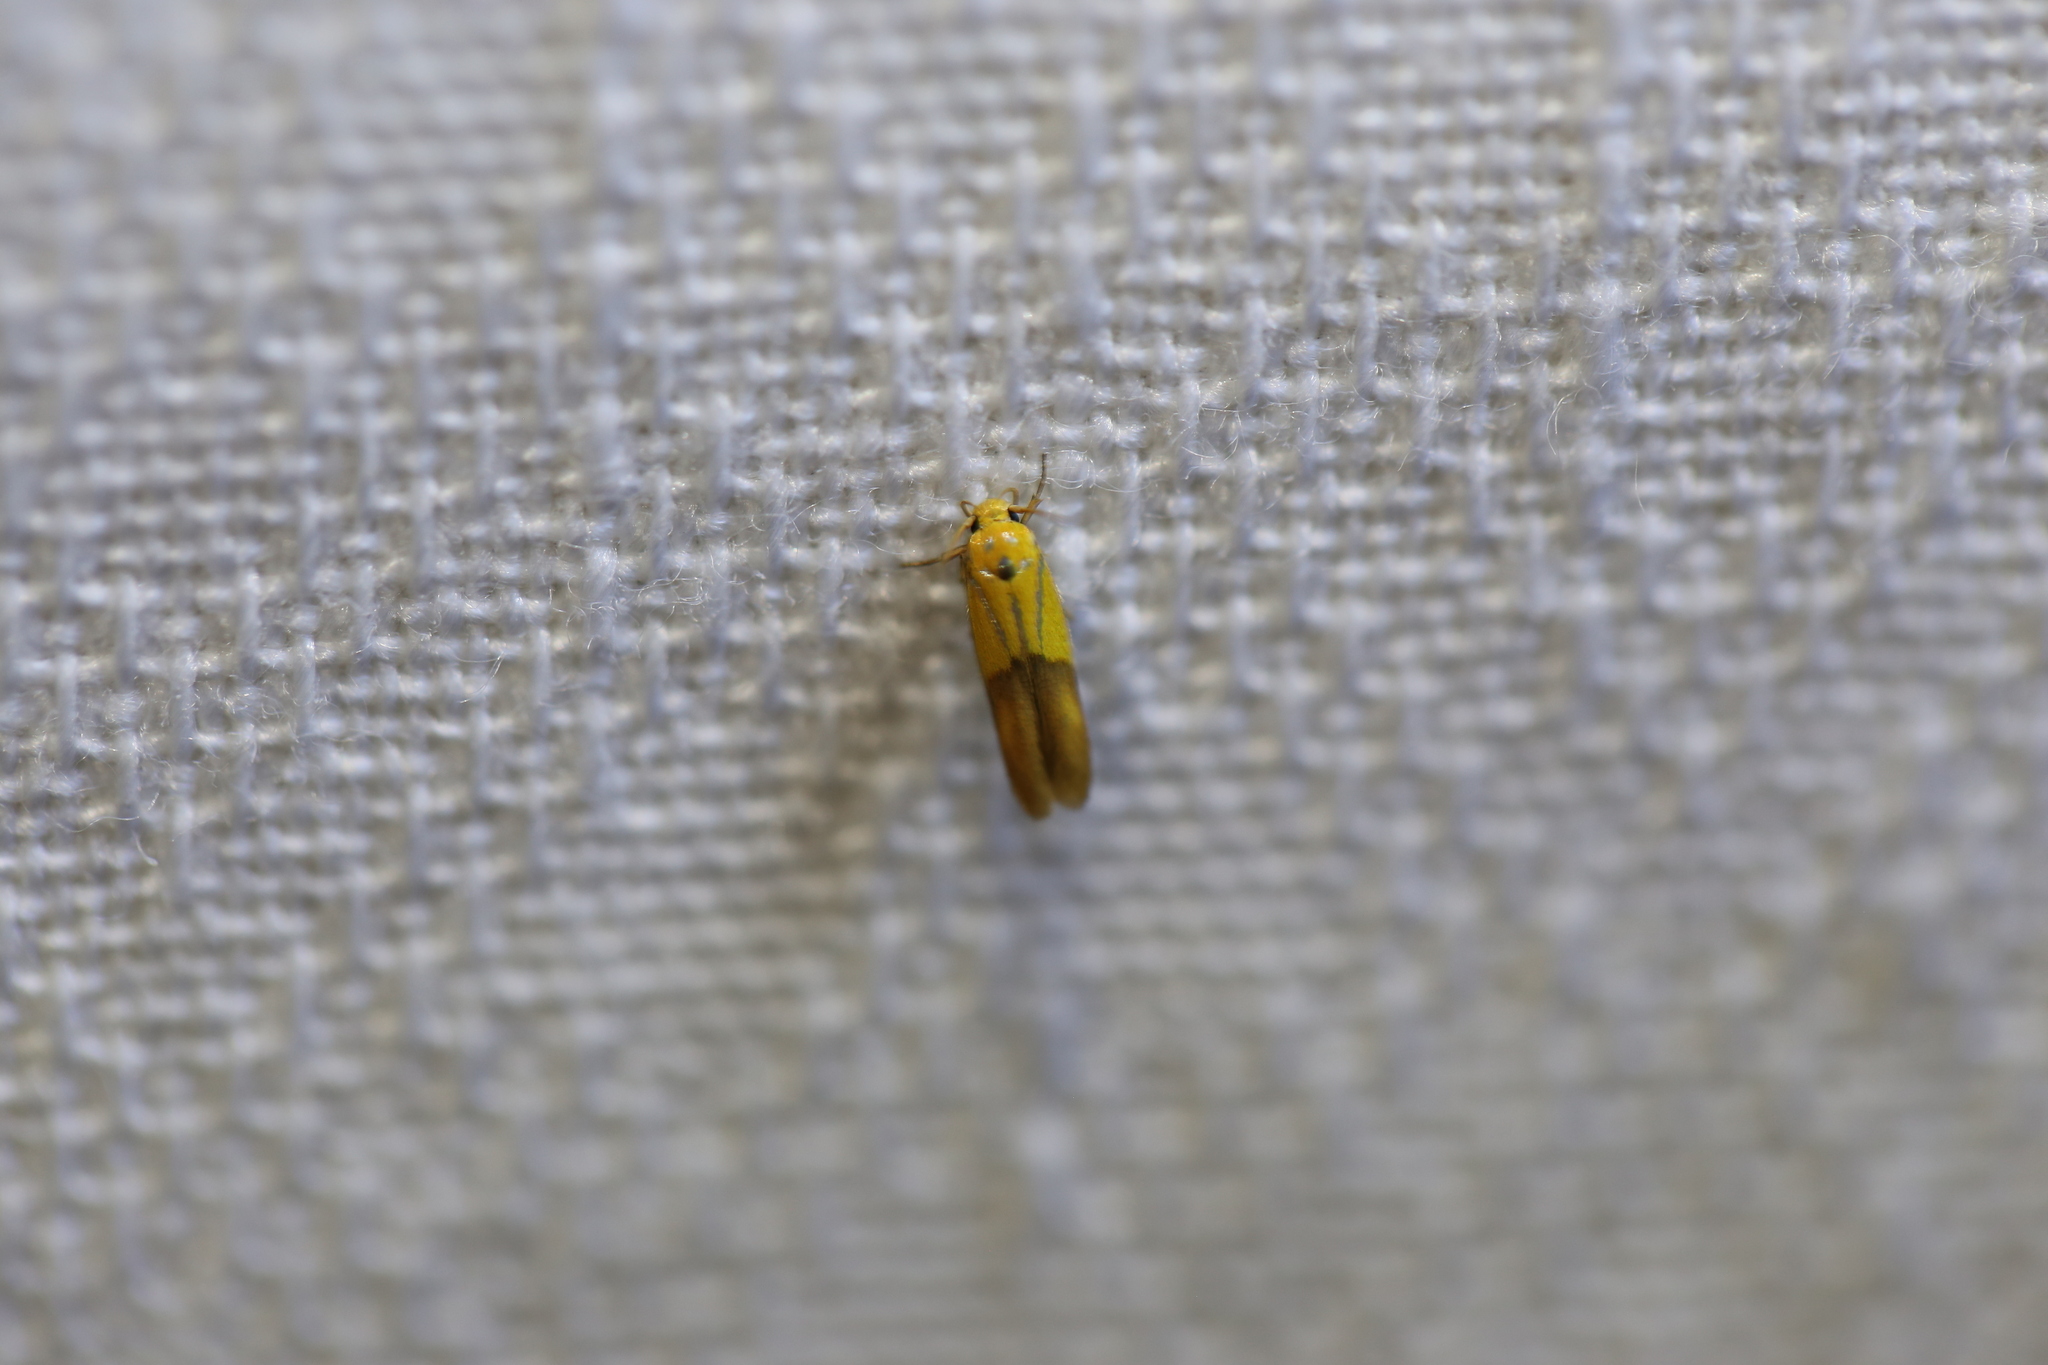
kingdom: Animalia
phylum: Arthropoda
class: Insecta
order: Lepidoptera
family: Stathmopodidae
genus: Stathmopoda
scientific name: Stathmopoda auriferella
